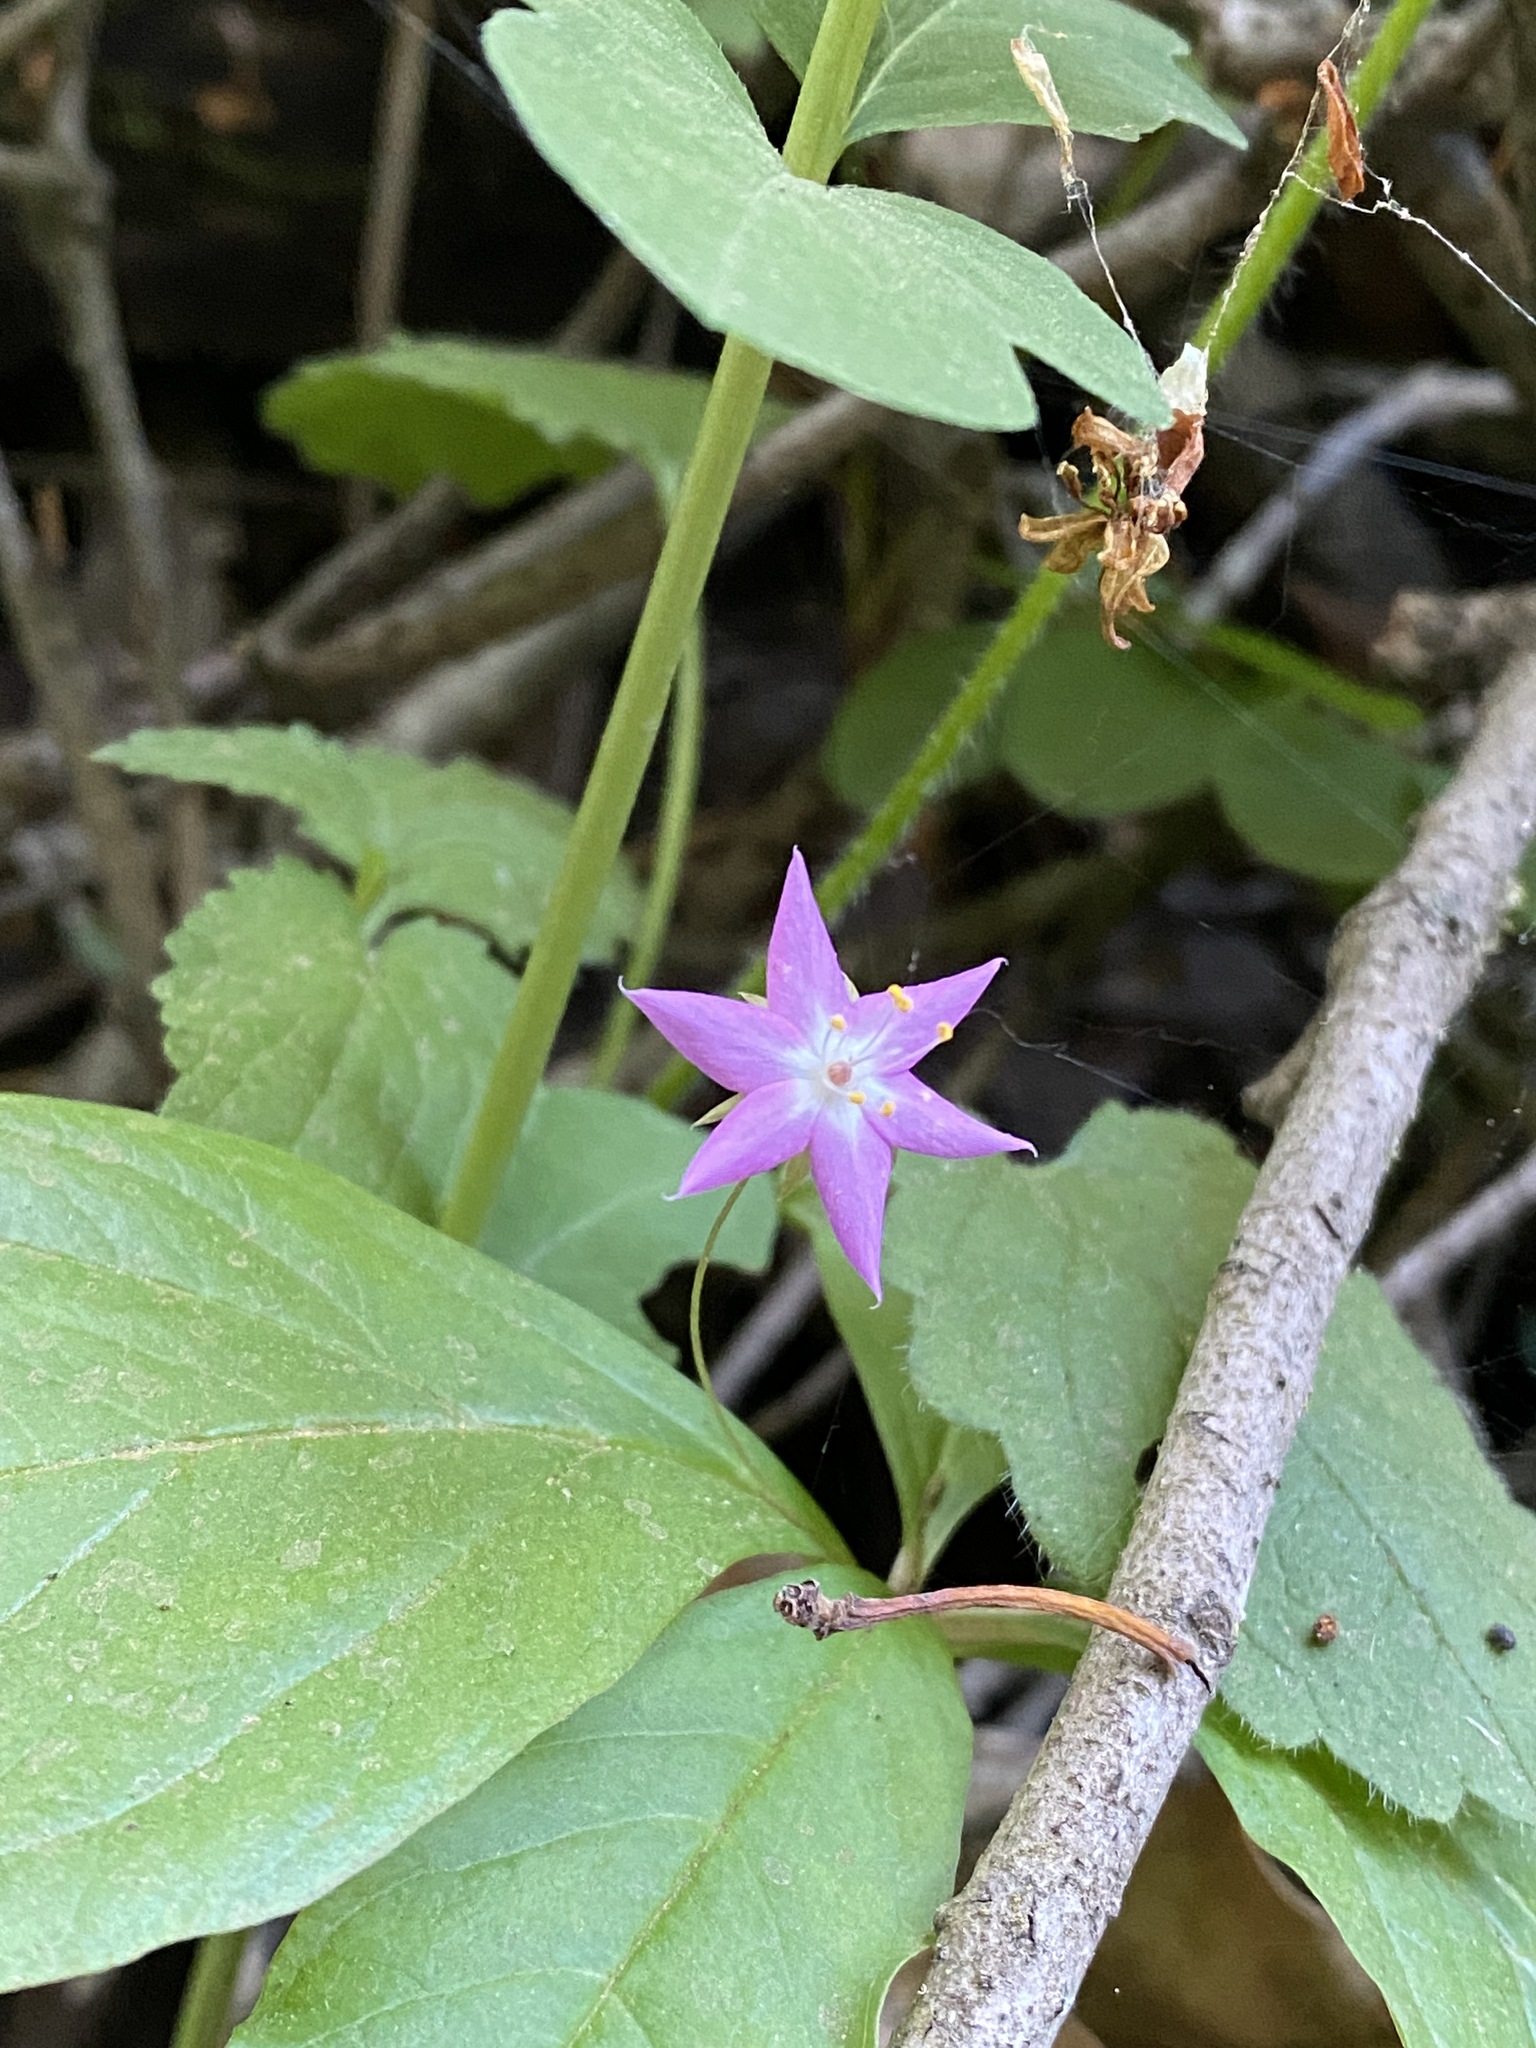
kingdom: Plantae
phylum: Tracheophyta
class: Magnoliopsida
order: Ericales
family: Primulaceae
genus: Lysimachia
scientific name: Lysimachia latifolia
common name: Pacific starflower
